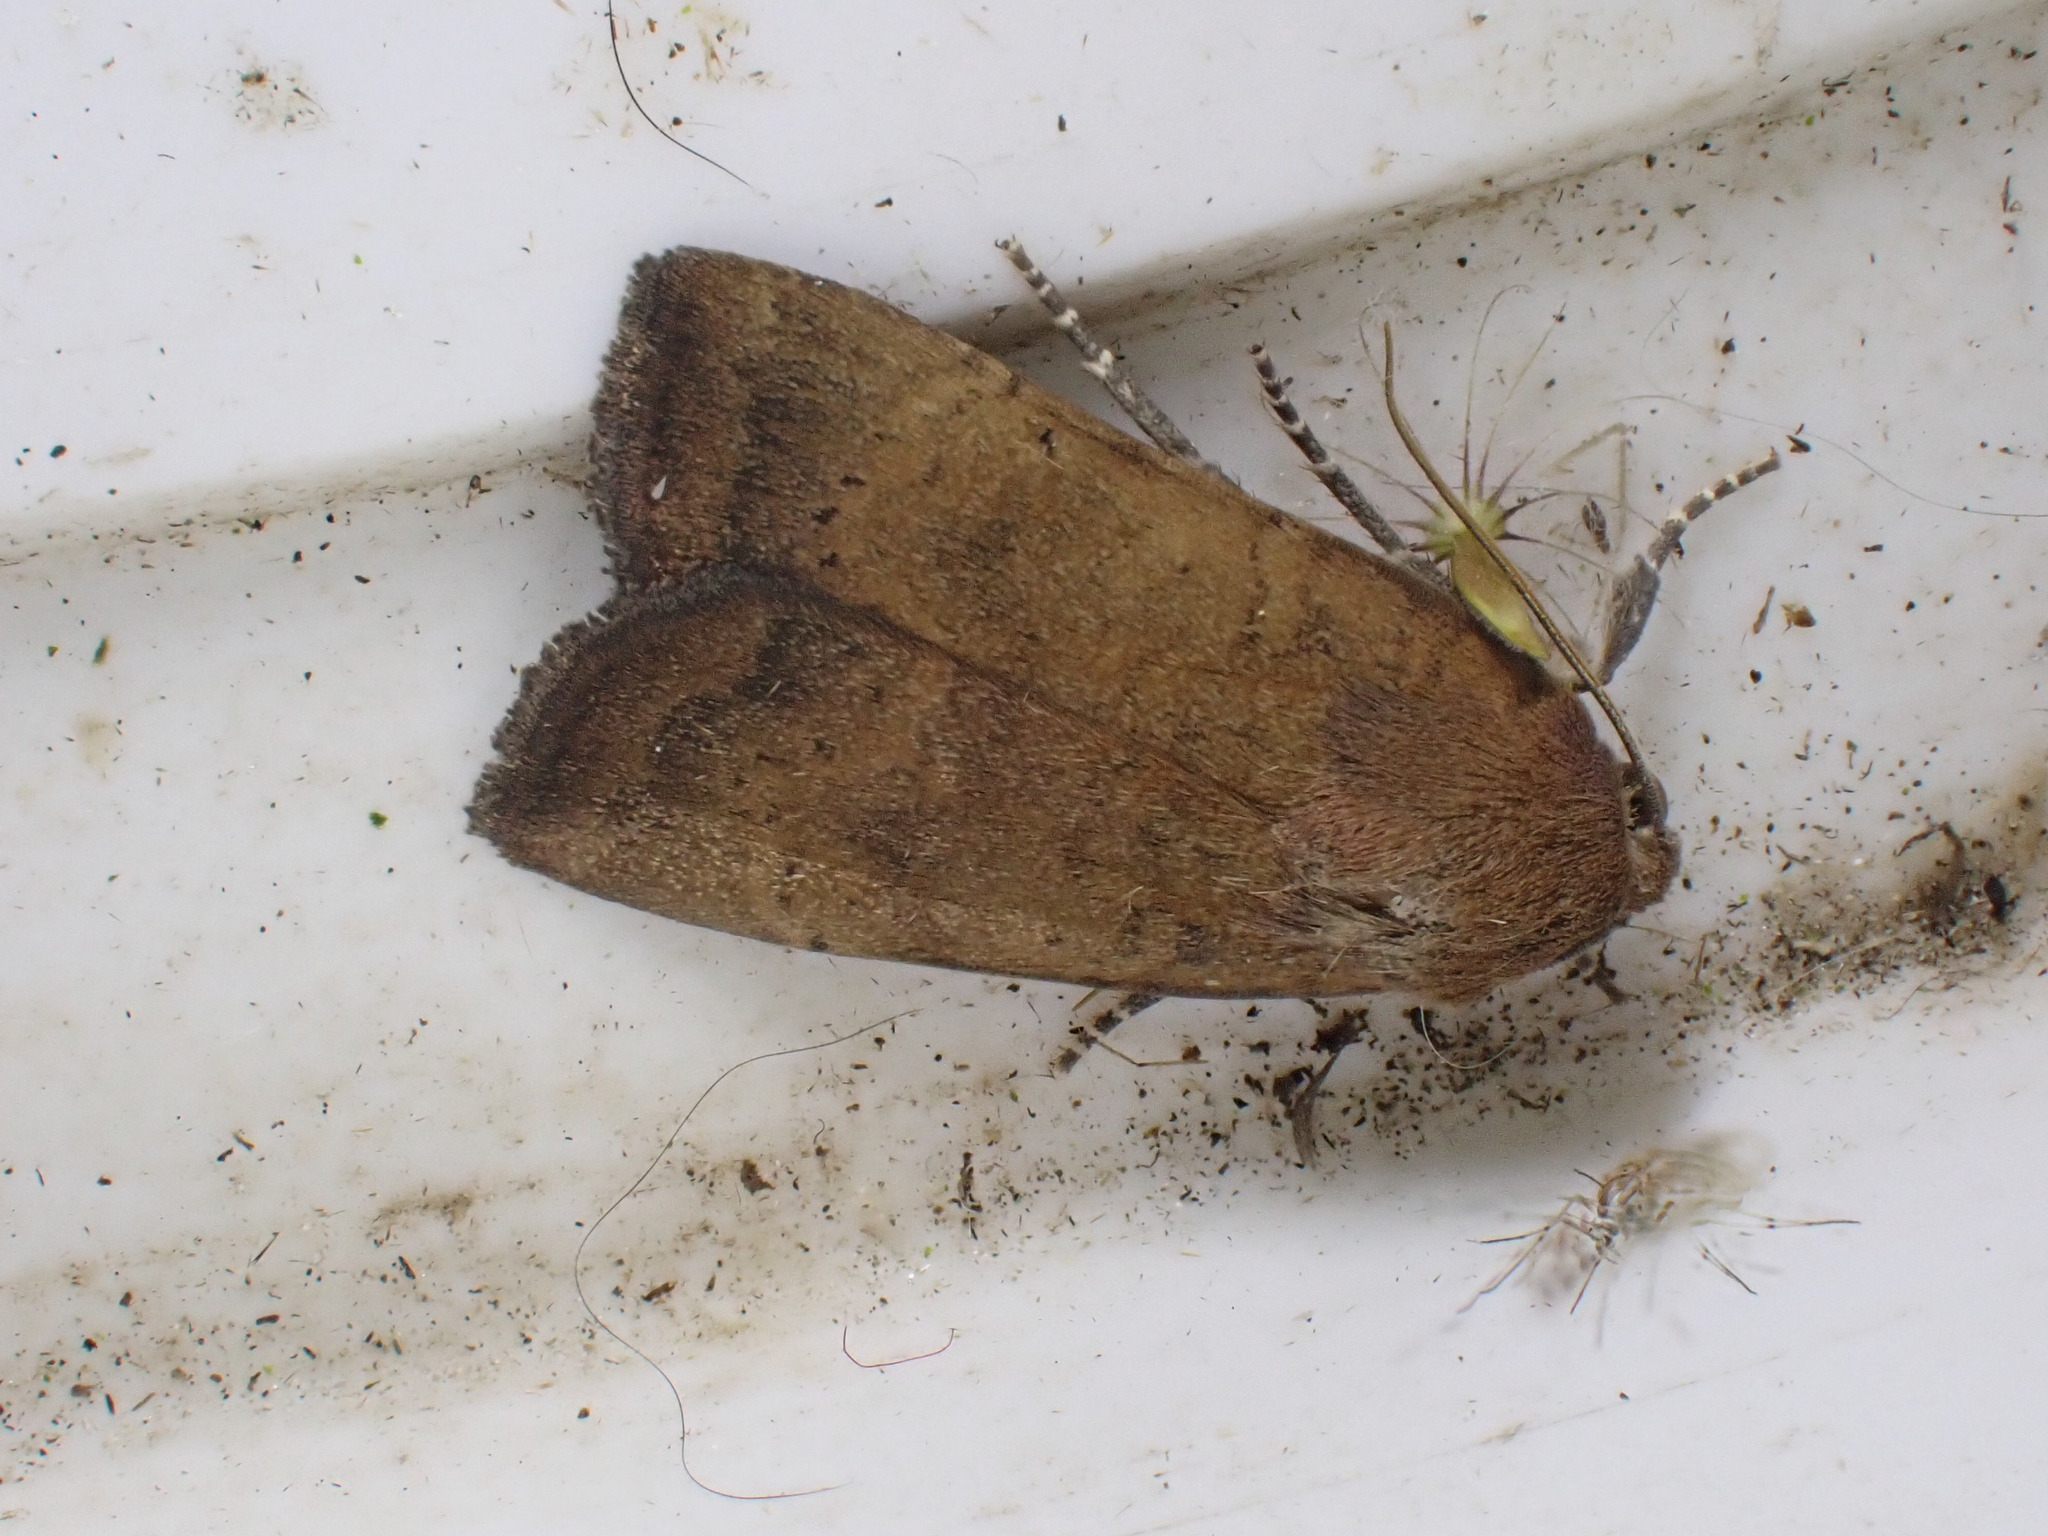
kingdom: Animalia
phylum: Arthropoda
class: Insecta
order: Lepidoptera
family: Noctuidae
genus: Noctua
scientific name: Noctua interjecta
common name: Least yellow underwing
